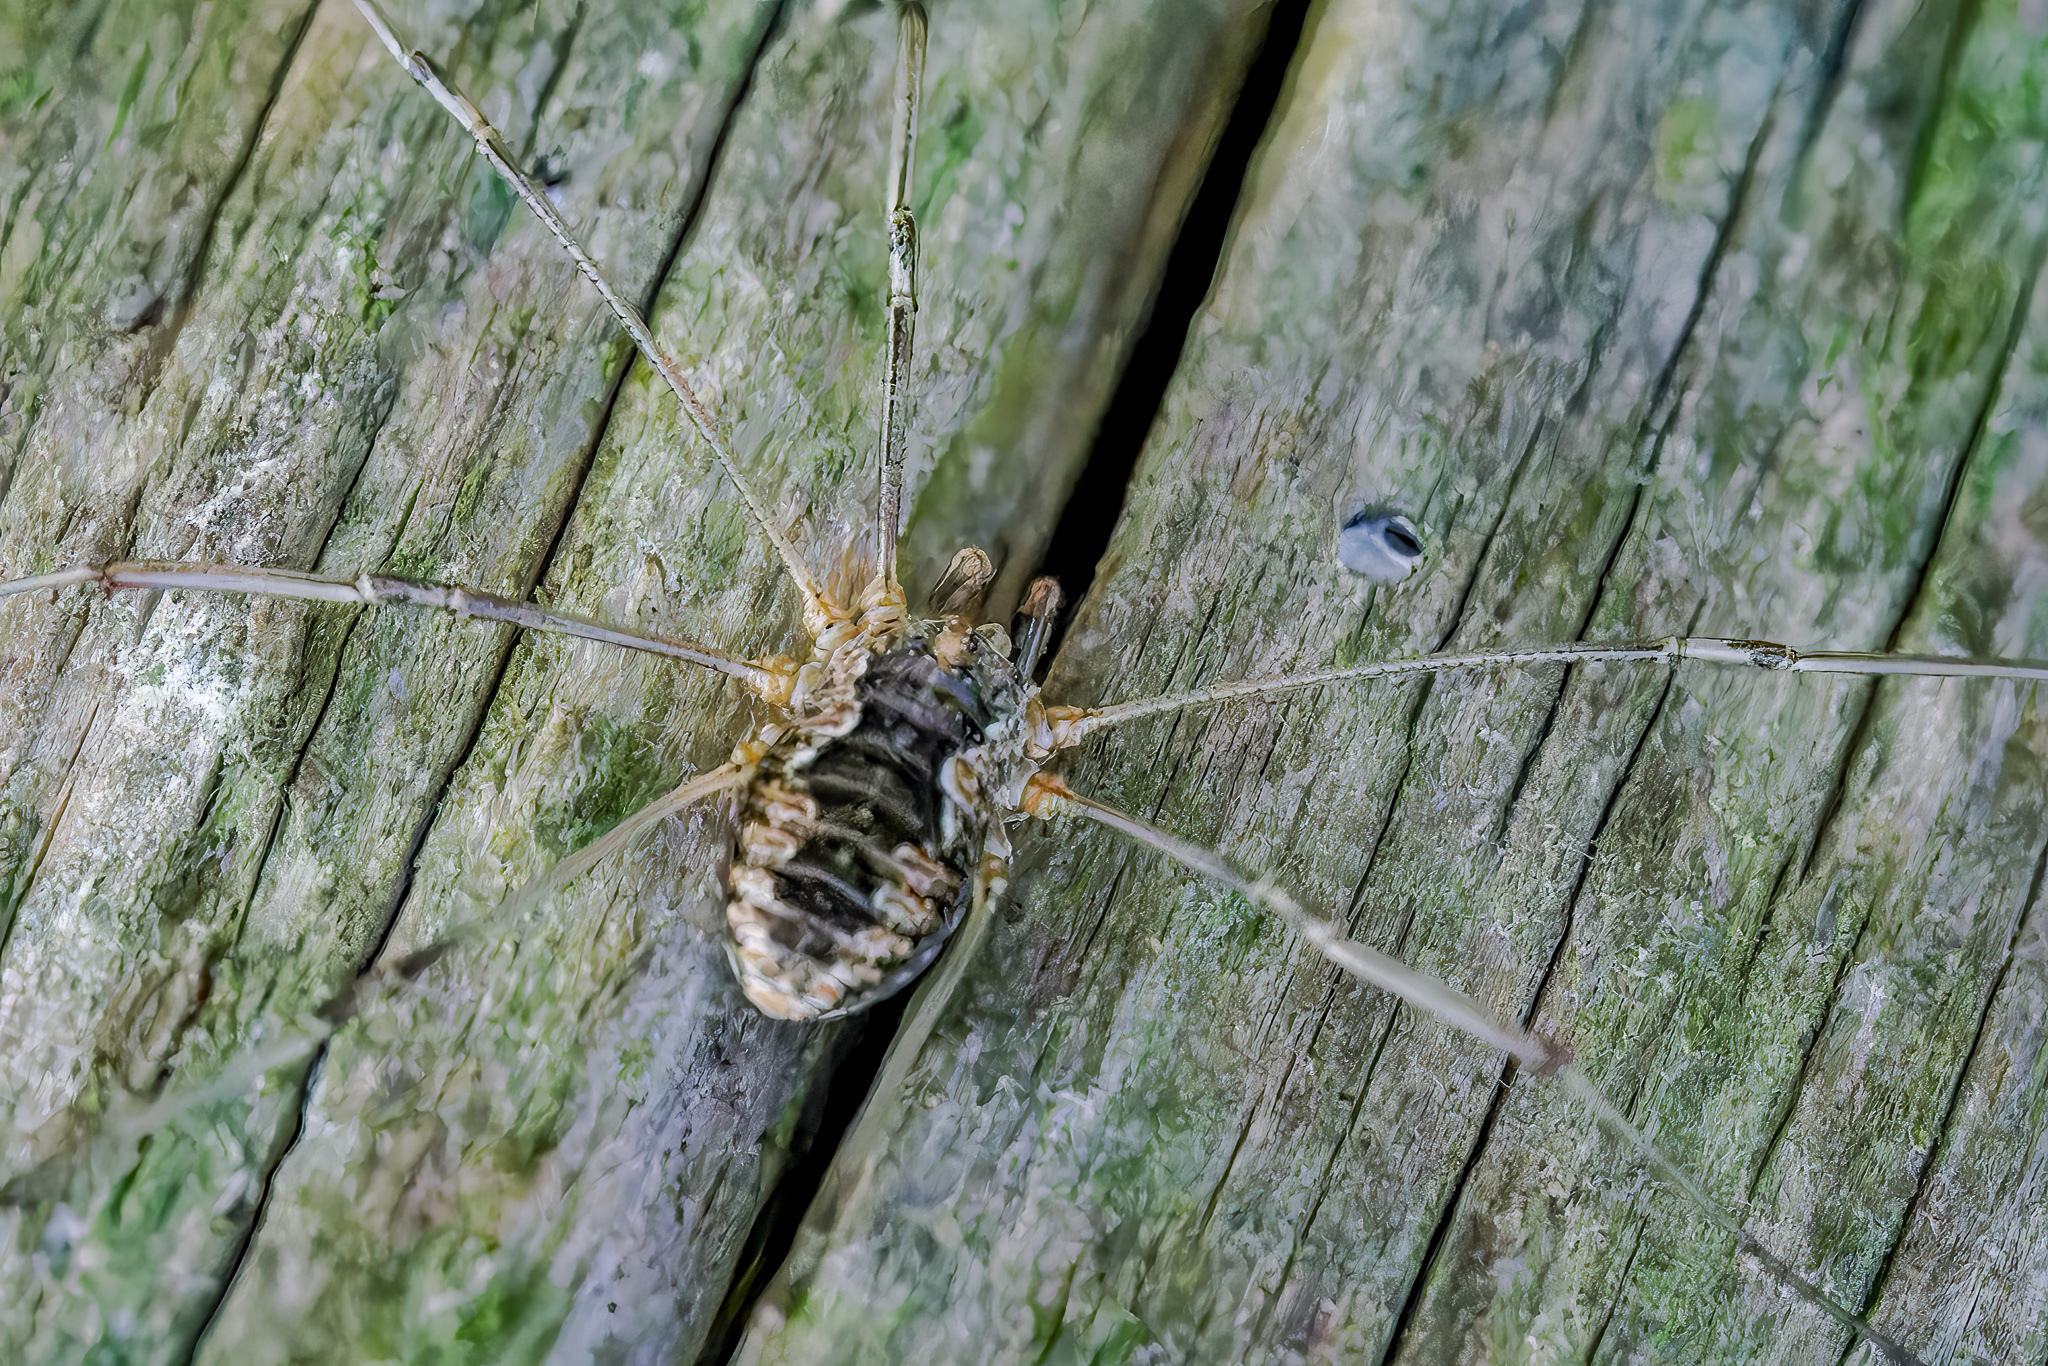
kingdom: Animalia
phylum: Arthropoda
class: Arachnida
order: Opiliones
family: Phalangiidae
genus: Phalangium
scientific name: Phalangium opilio
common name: Daddy longleg
